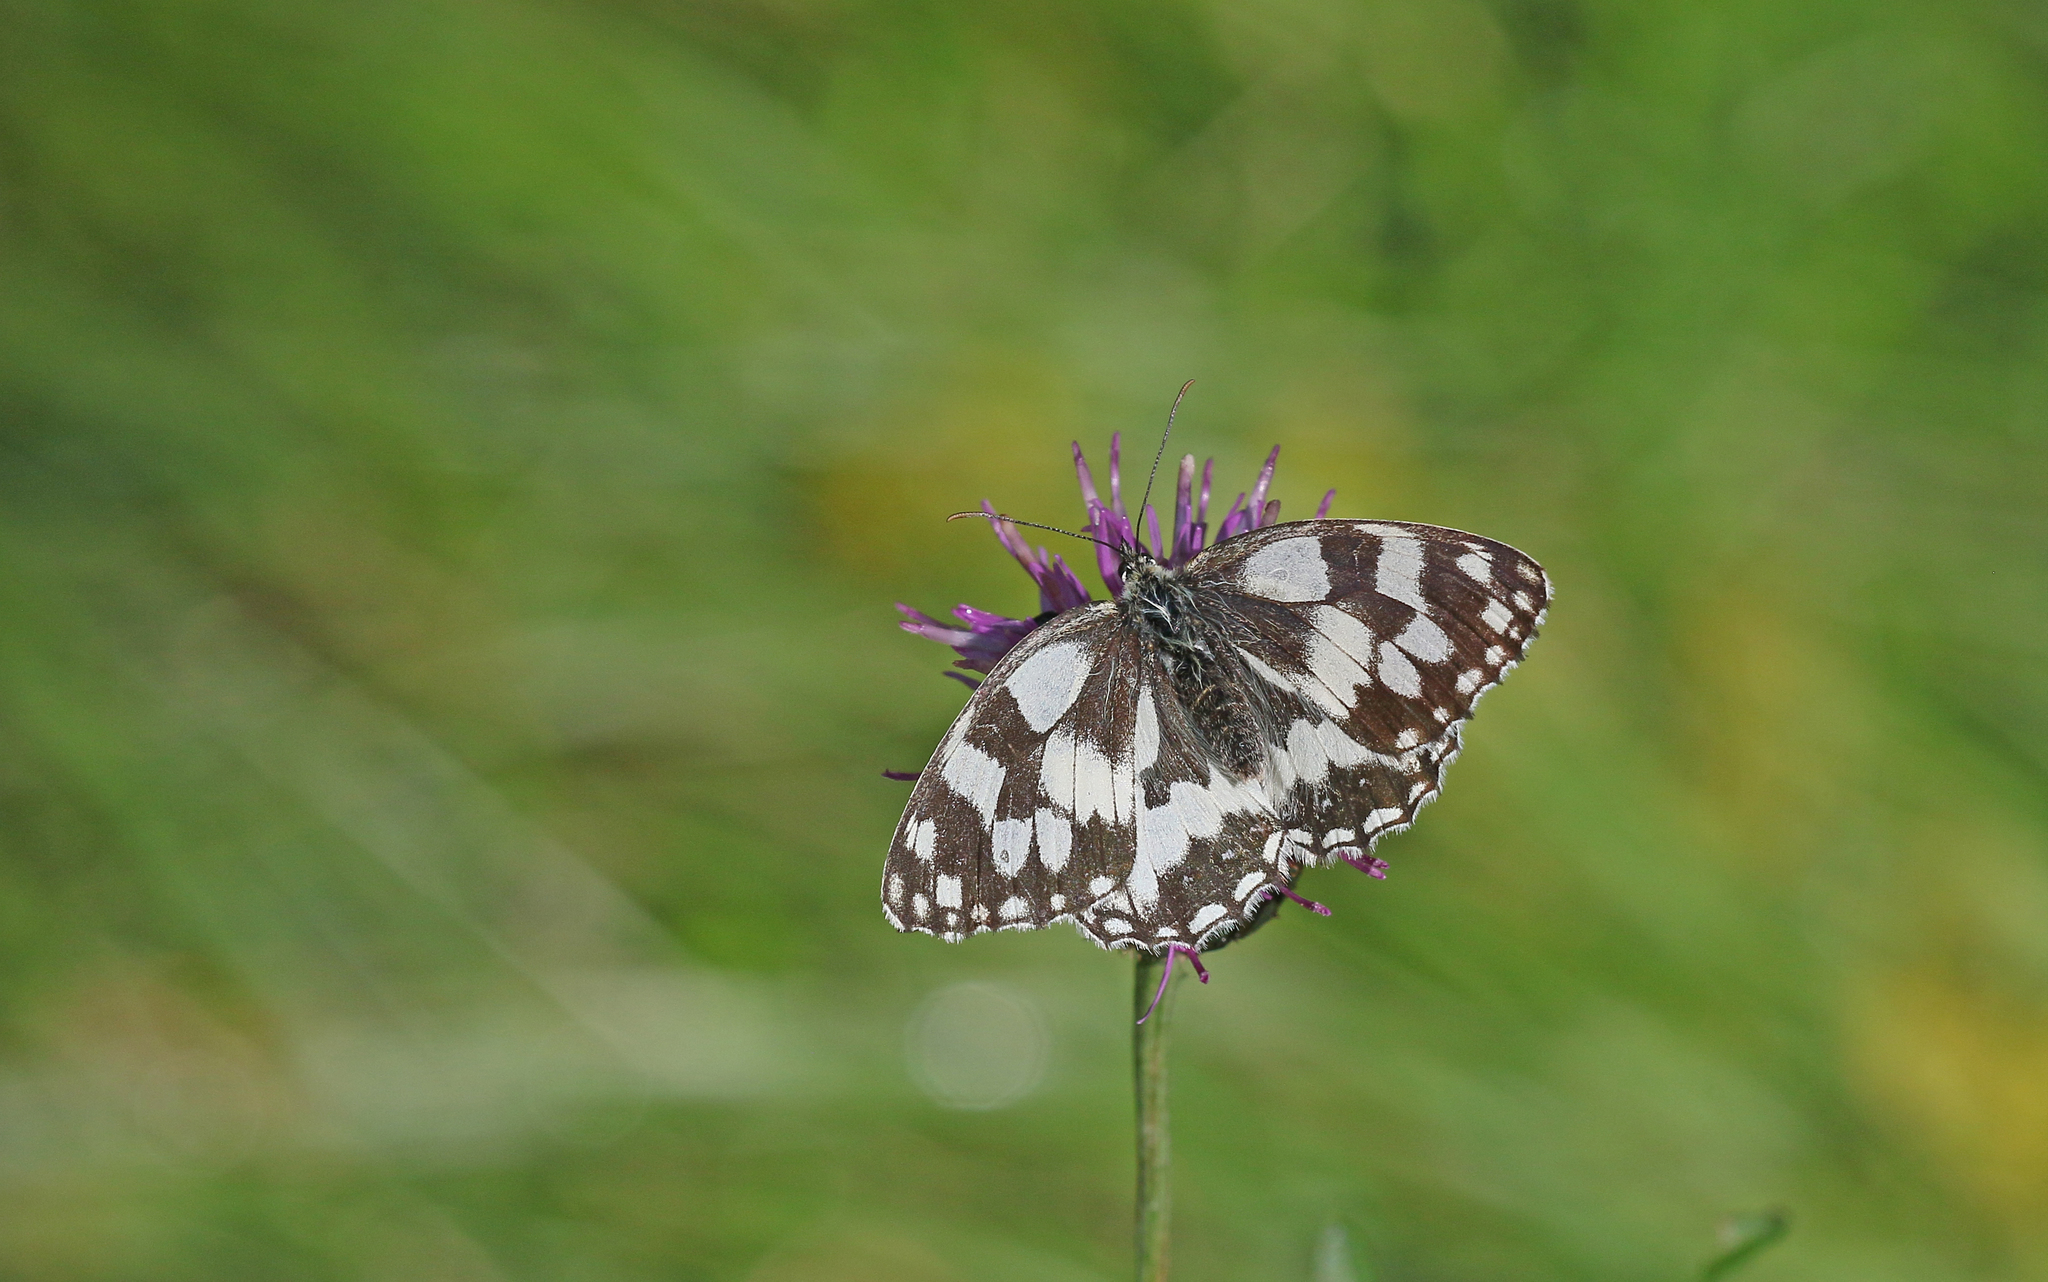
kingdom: Animalia
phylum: Arthropoda
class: Insecta
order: Lepidoptera
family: Nymphalidae
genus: Melanargia
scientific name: Melanargia galathea
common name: Marbled white
